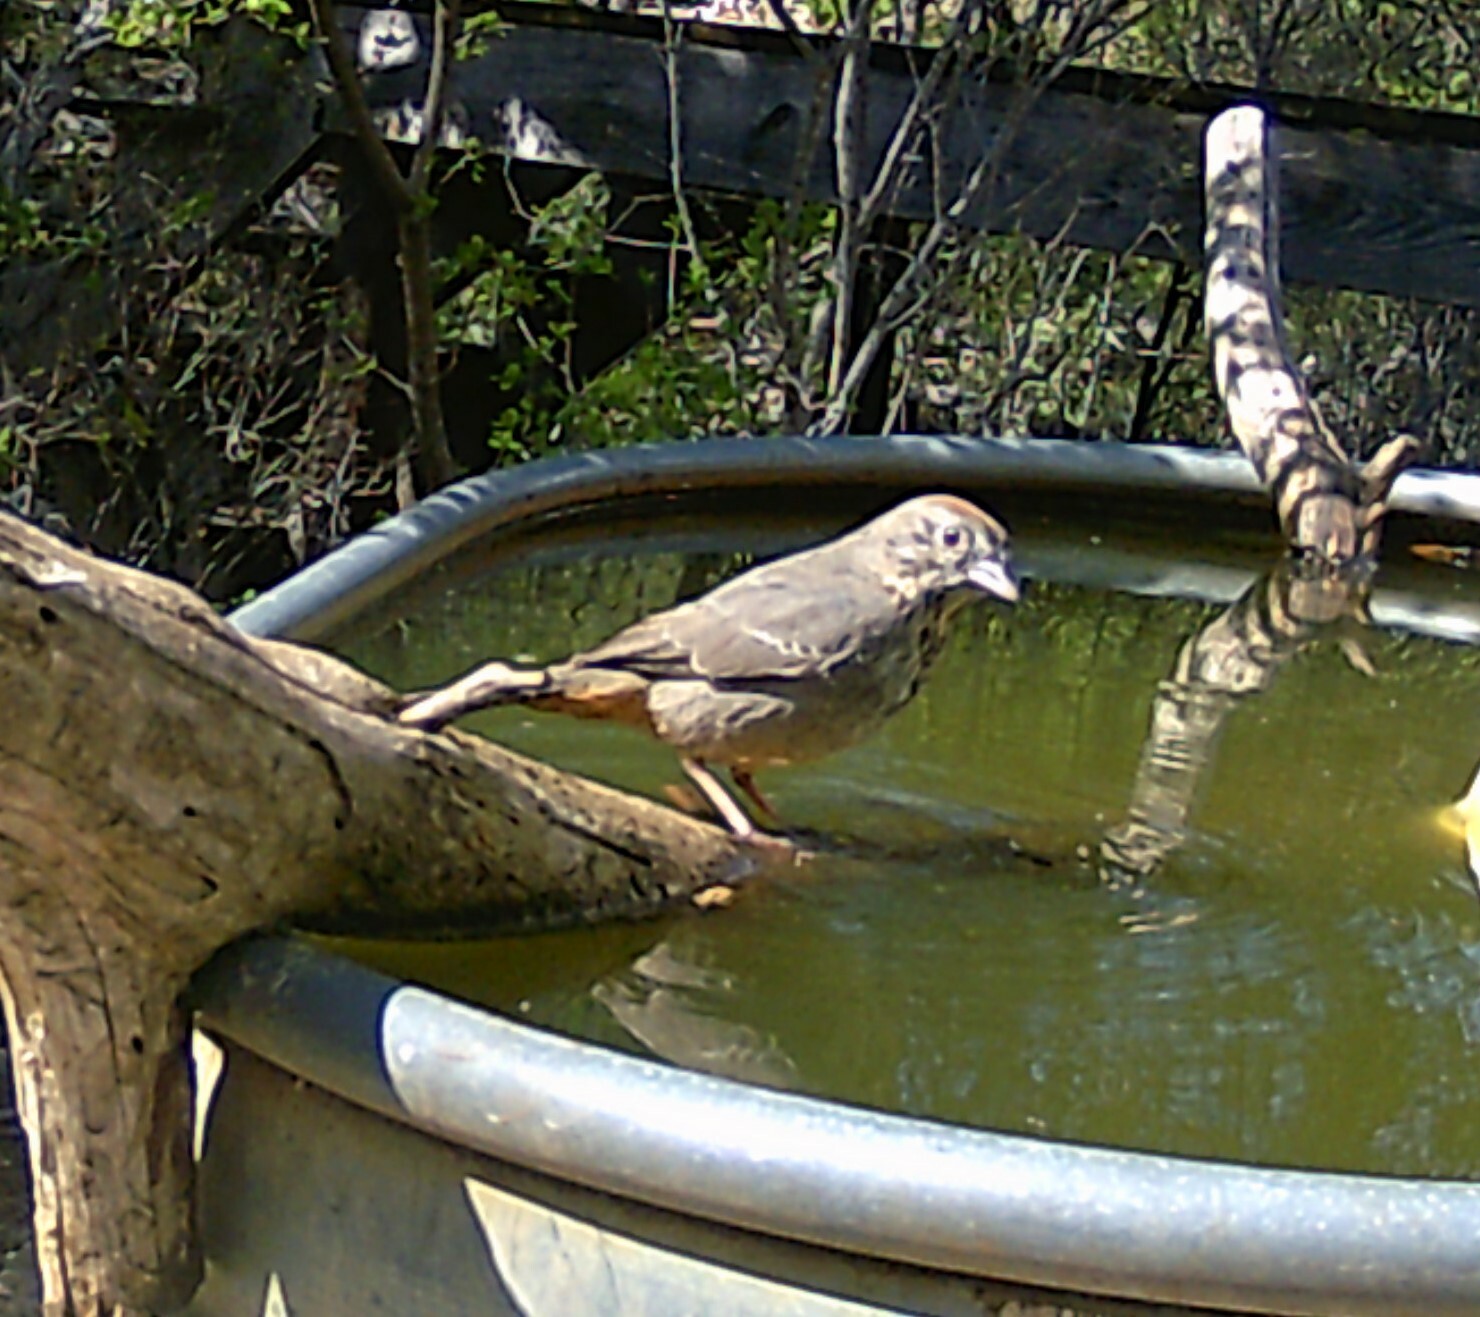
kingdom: Animalia
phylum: Chordata
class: Aves
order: Passeriformes
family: Passerellidae
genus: Melozone
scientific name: Melozone fusca
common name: Canyon towhee
